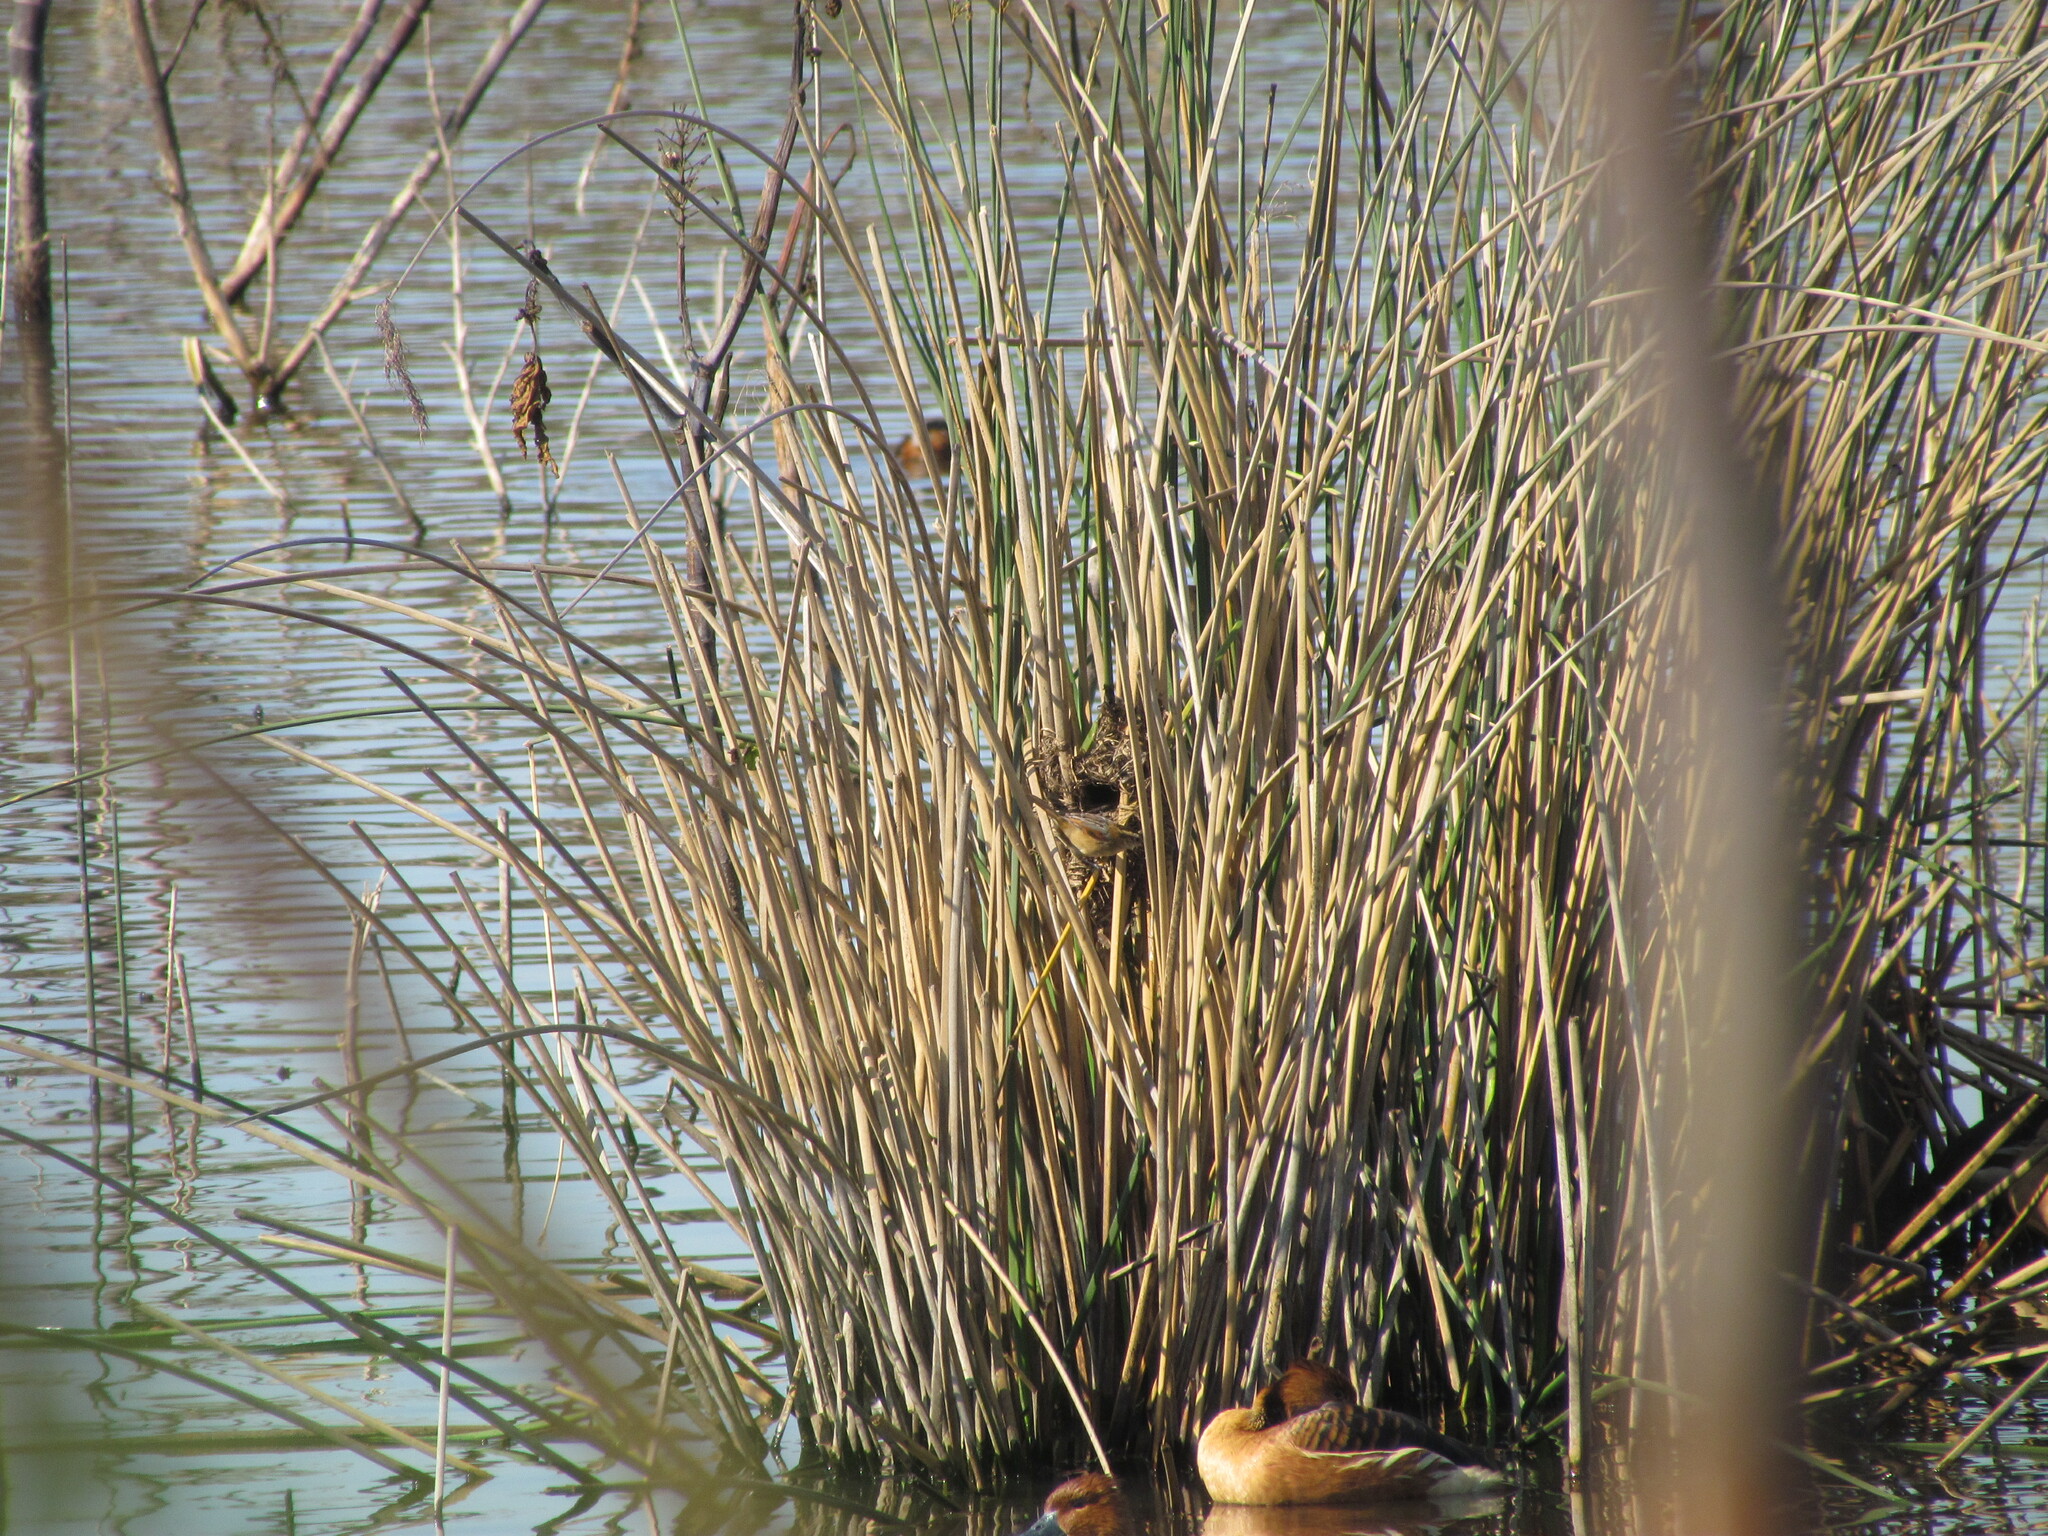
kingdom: Animalia
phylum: Chordata
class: Aves
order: Passeriformes
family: Furnariidae
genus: Phleocryptes
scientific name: Phleocryptes melanops
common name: Wren-like rushbird
